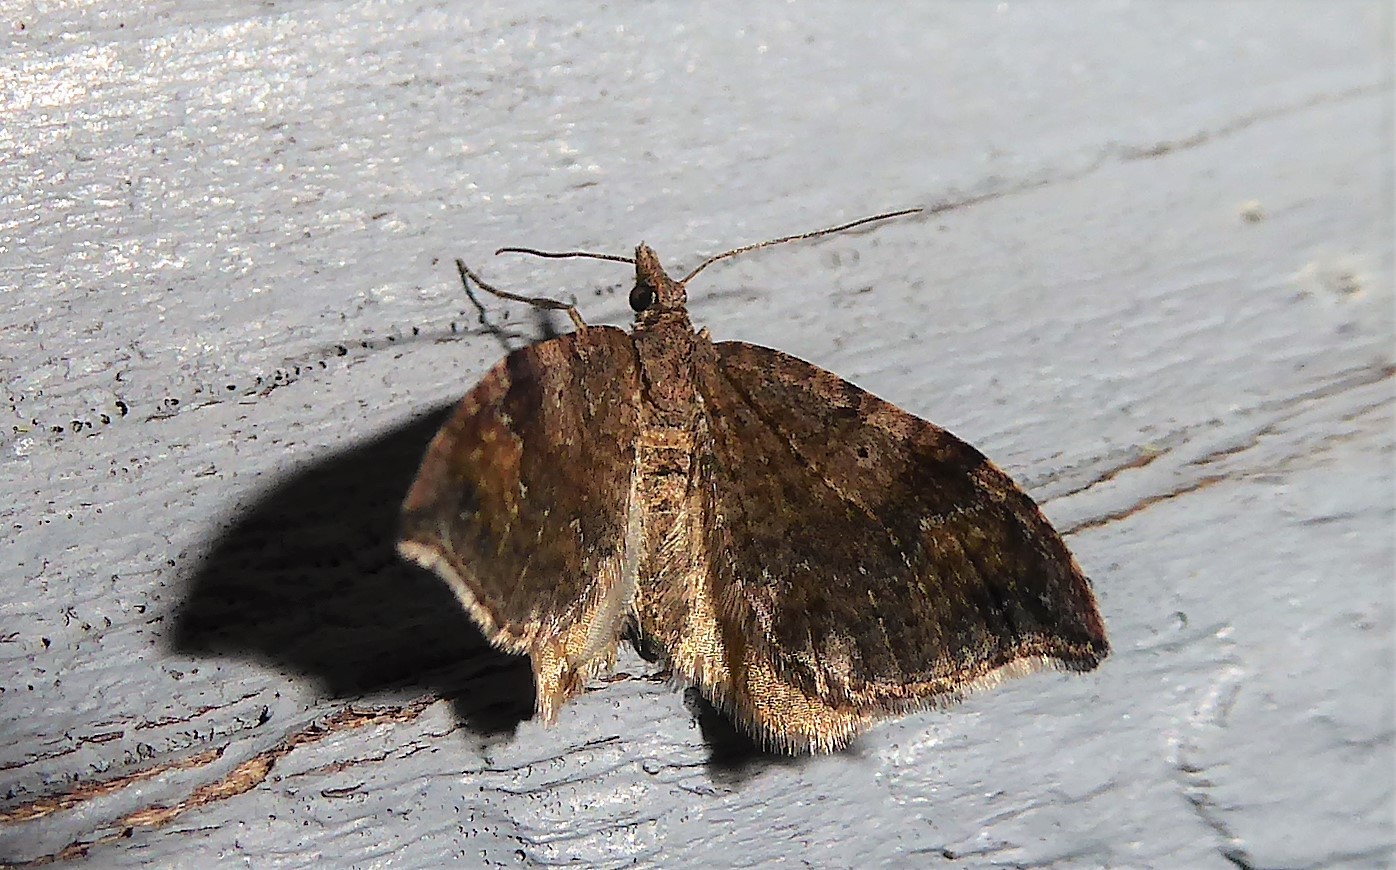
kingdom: Animalia
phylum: Arthropoda
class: Insecta
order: Lepidoptera
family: Geometridae
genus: Homodotis
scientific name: Homodotis megaspilata
